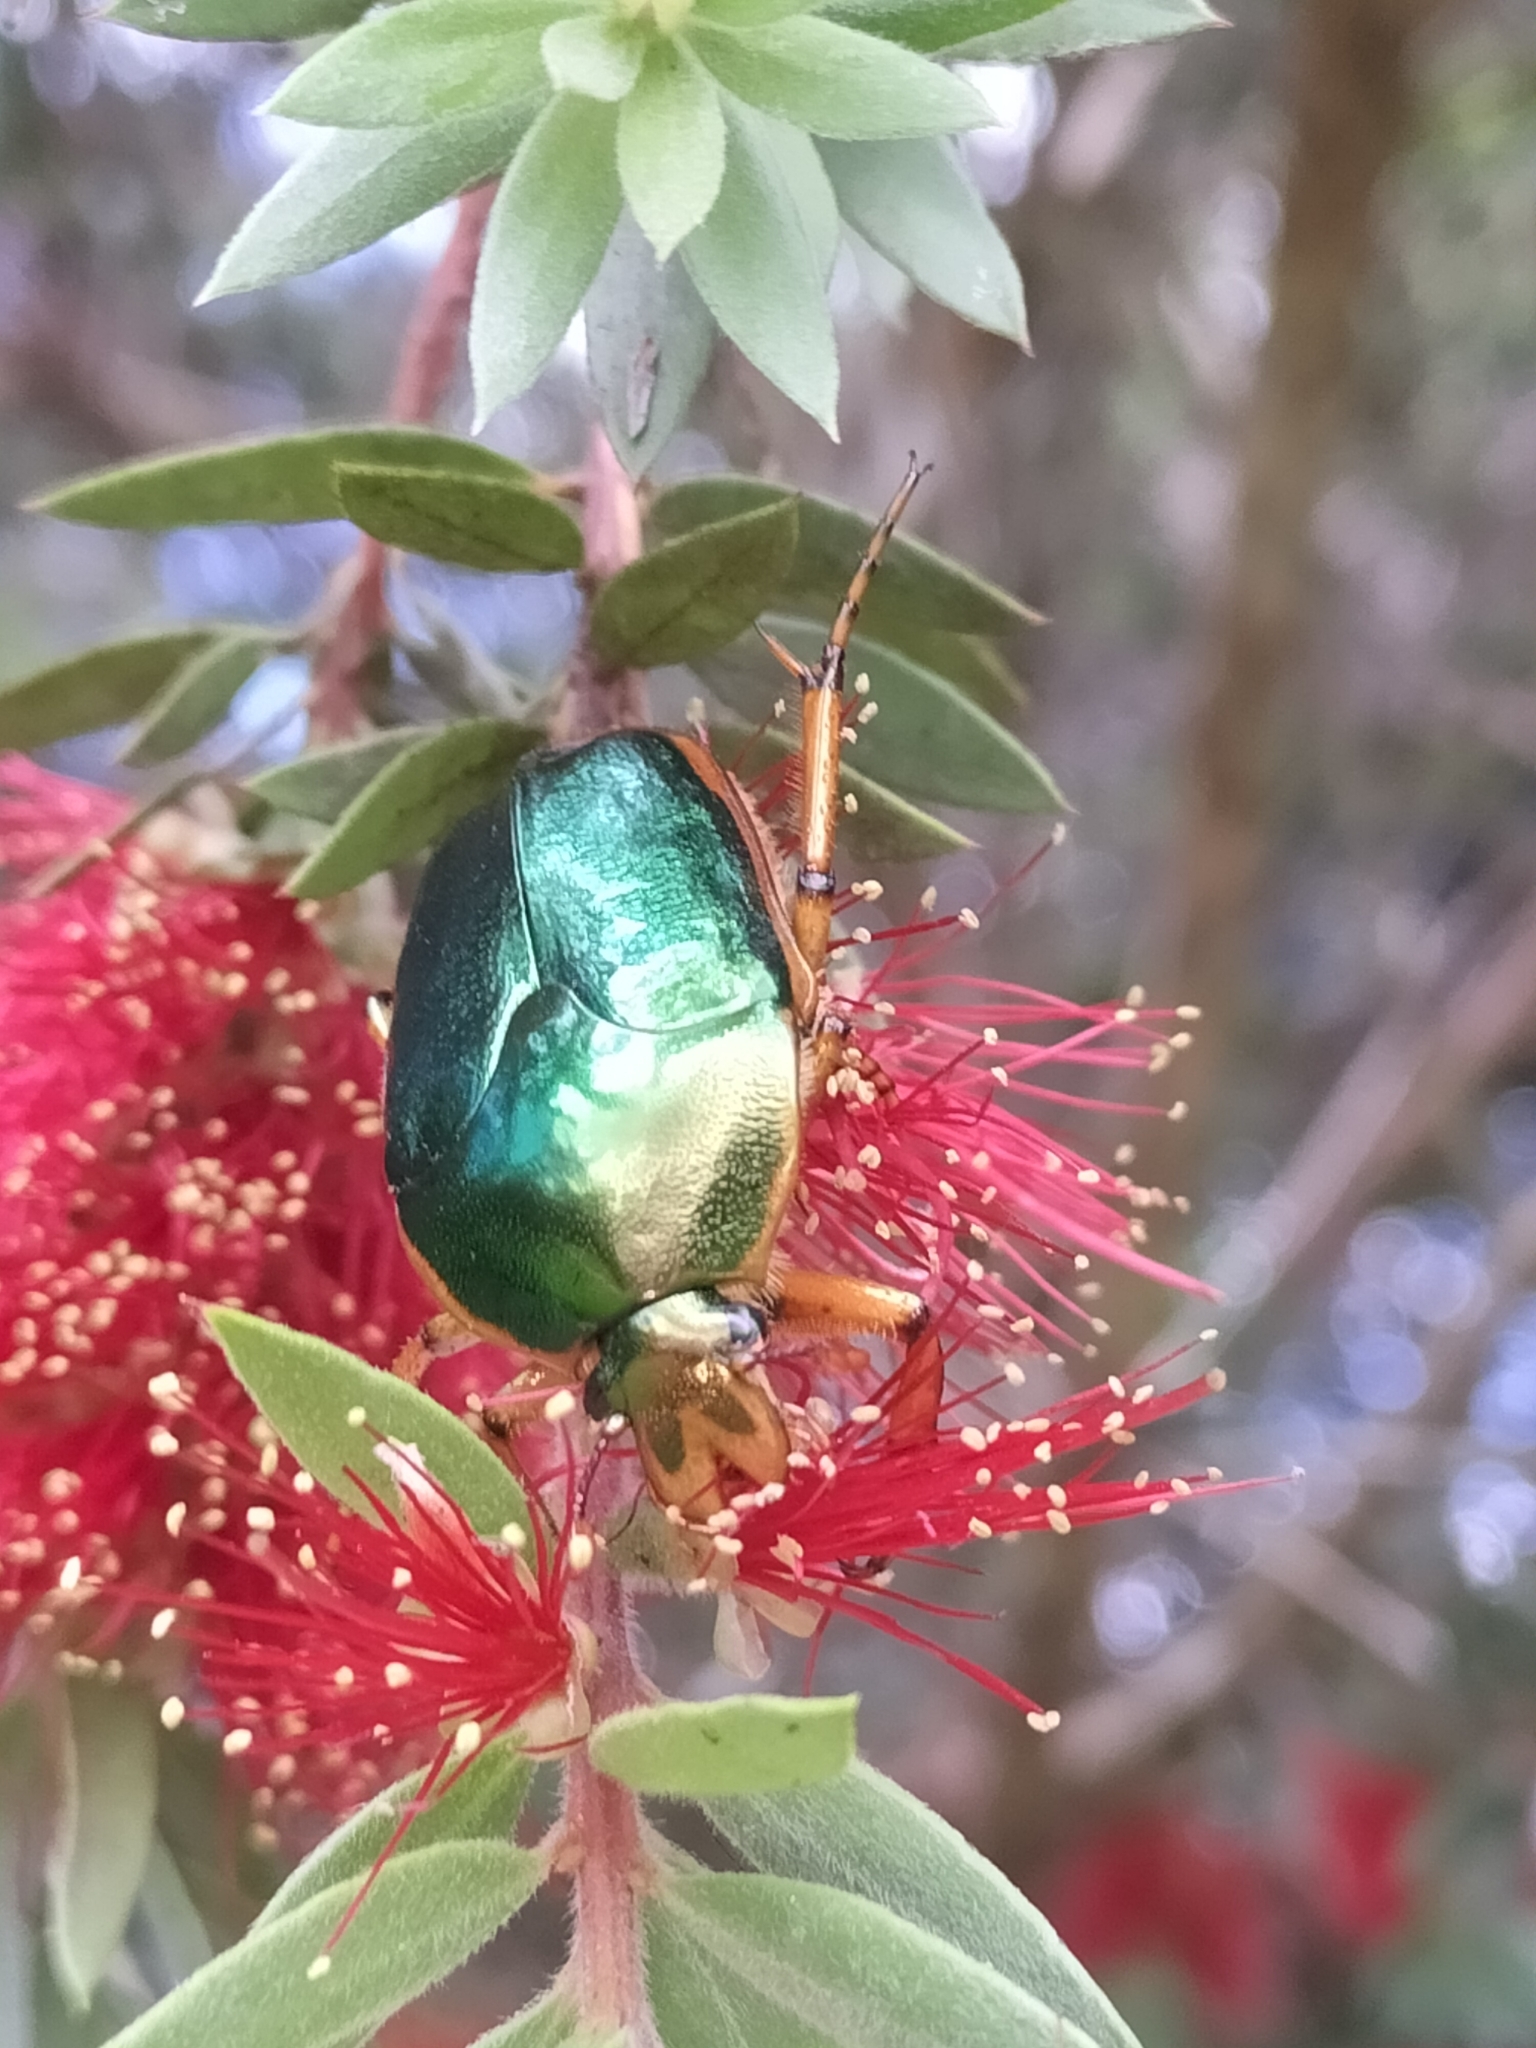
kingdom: Animalia
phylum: Arthropoda
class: Insecta
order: Coleoptera
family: Scarabaeidae
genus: Mycterophallus
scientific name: Mycterophallus duboulayi
